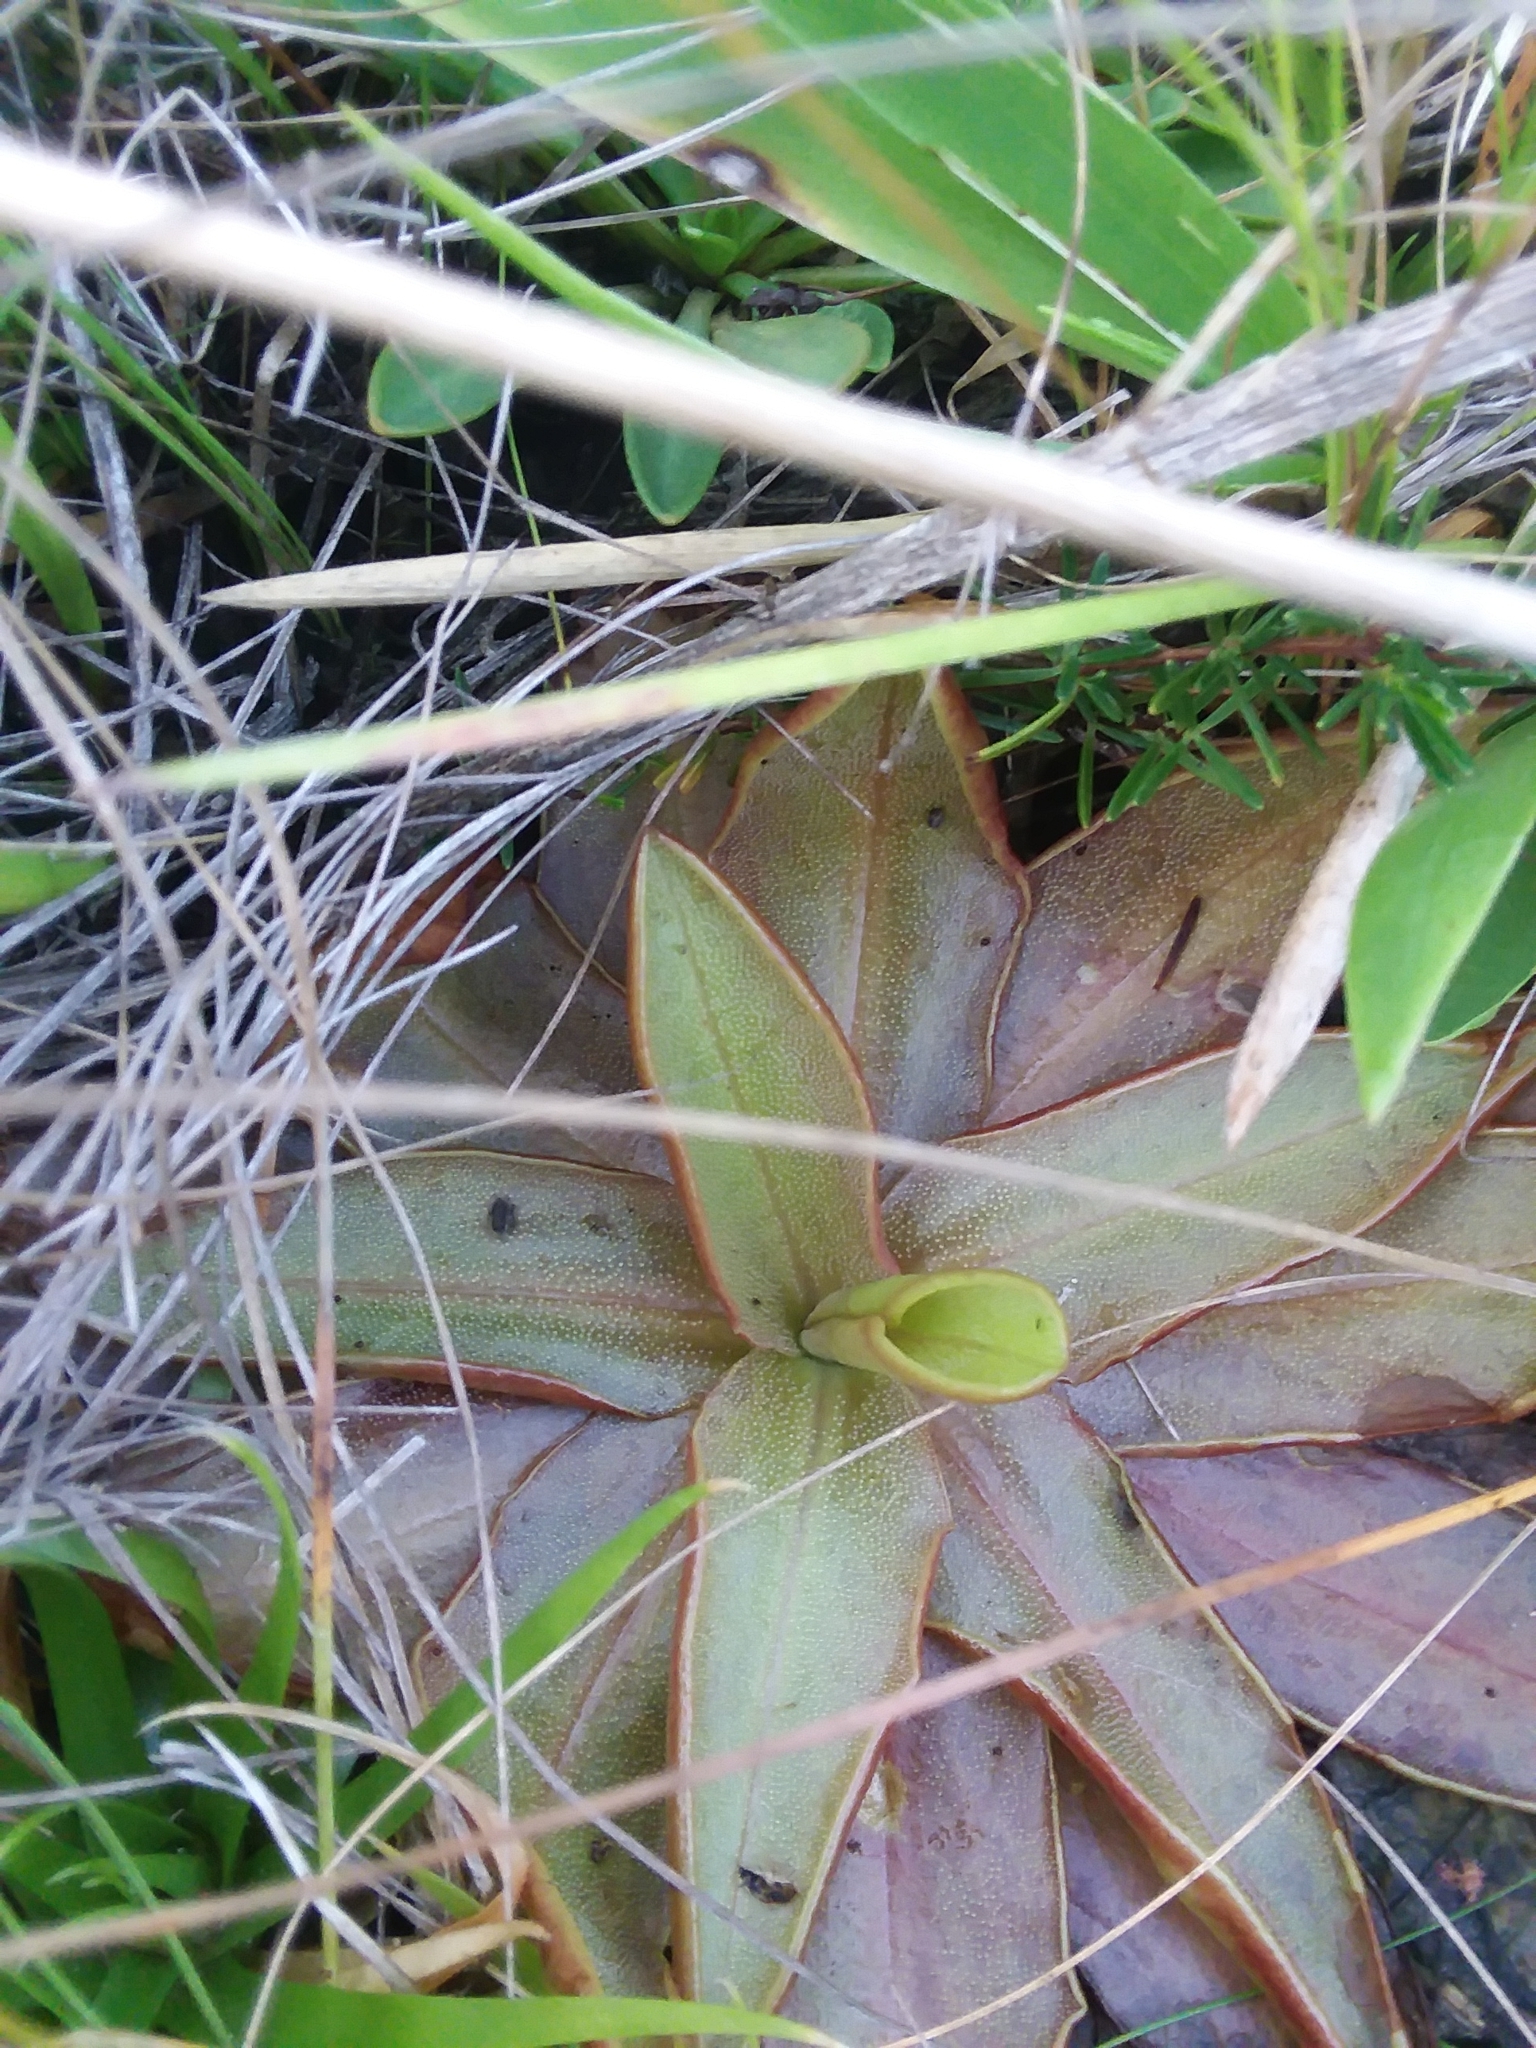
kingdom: Plantae
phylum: Tracheophyta
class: Magnoliopsida
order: Lamiales
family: Lentibulariaceae
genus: Pinguicula
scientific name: Pinguicula planifolia
